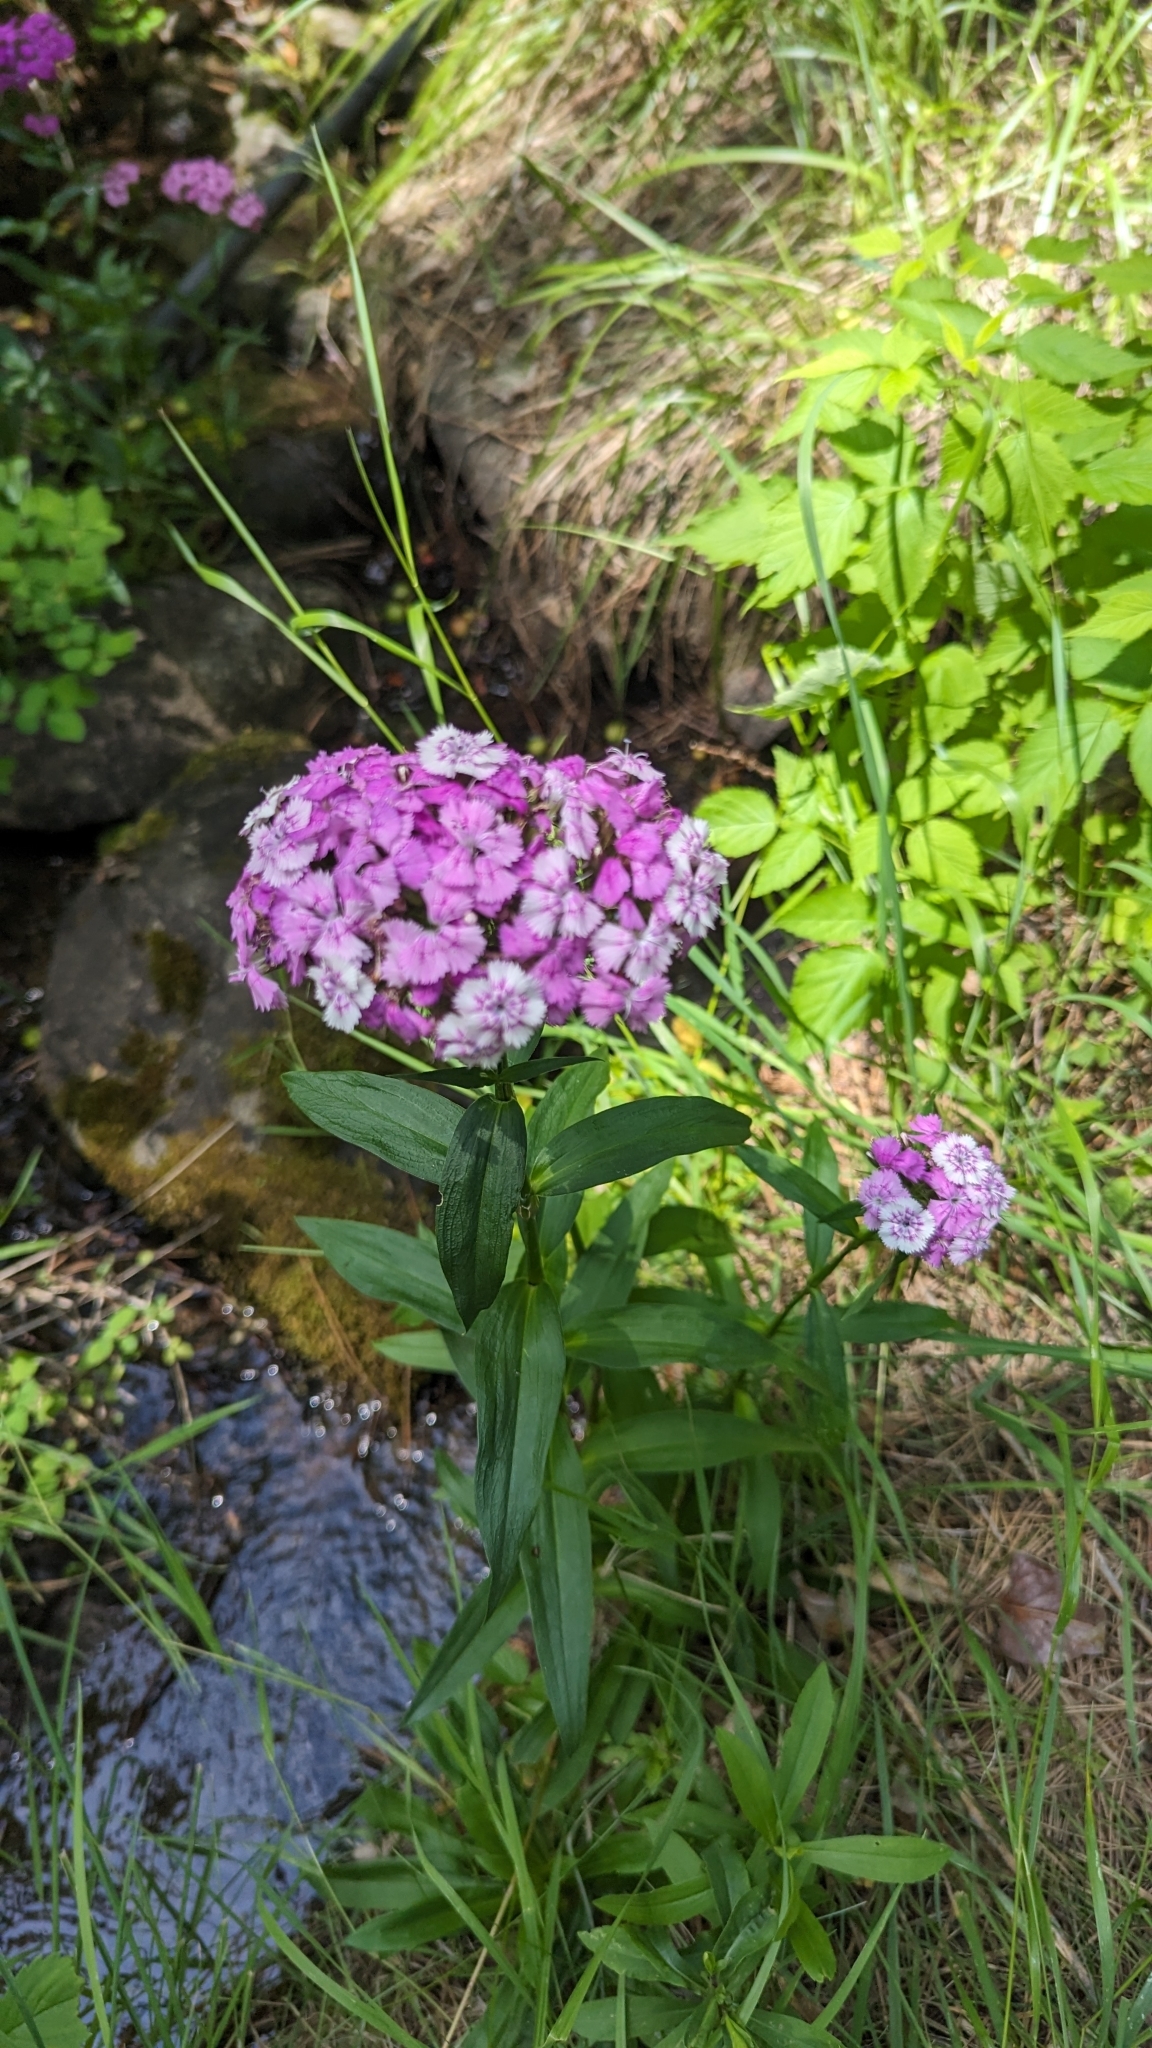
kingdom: Plantae
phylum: Tracheophyta
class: Magnoliopsida
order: Caryophyllales
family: Caryophyllaceae
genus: Dianthus
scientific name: Dianthus barbatus
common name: Sweet-william
